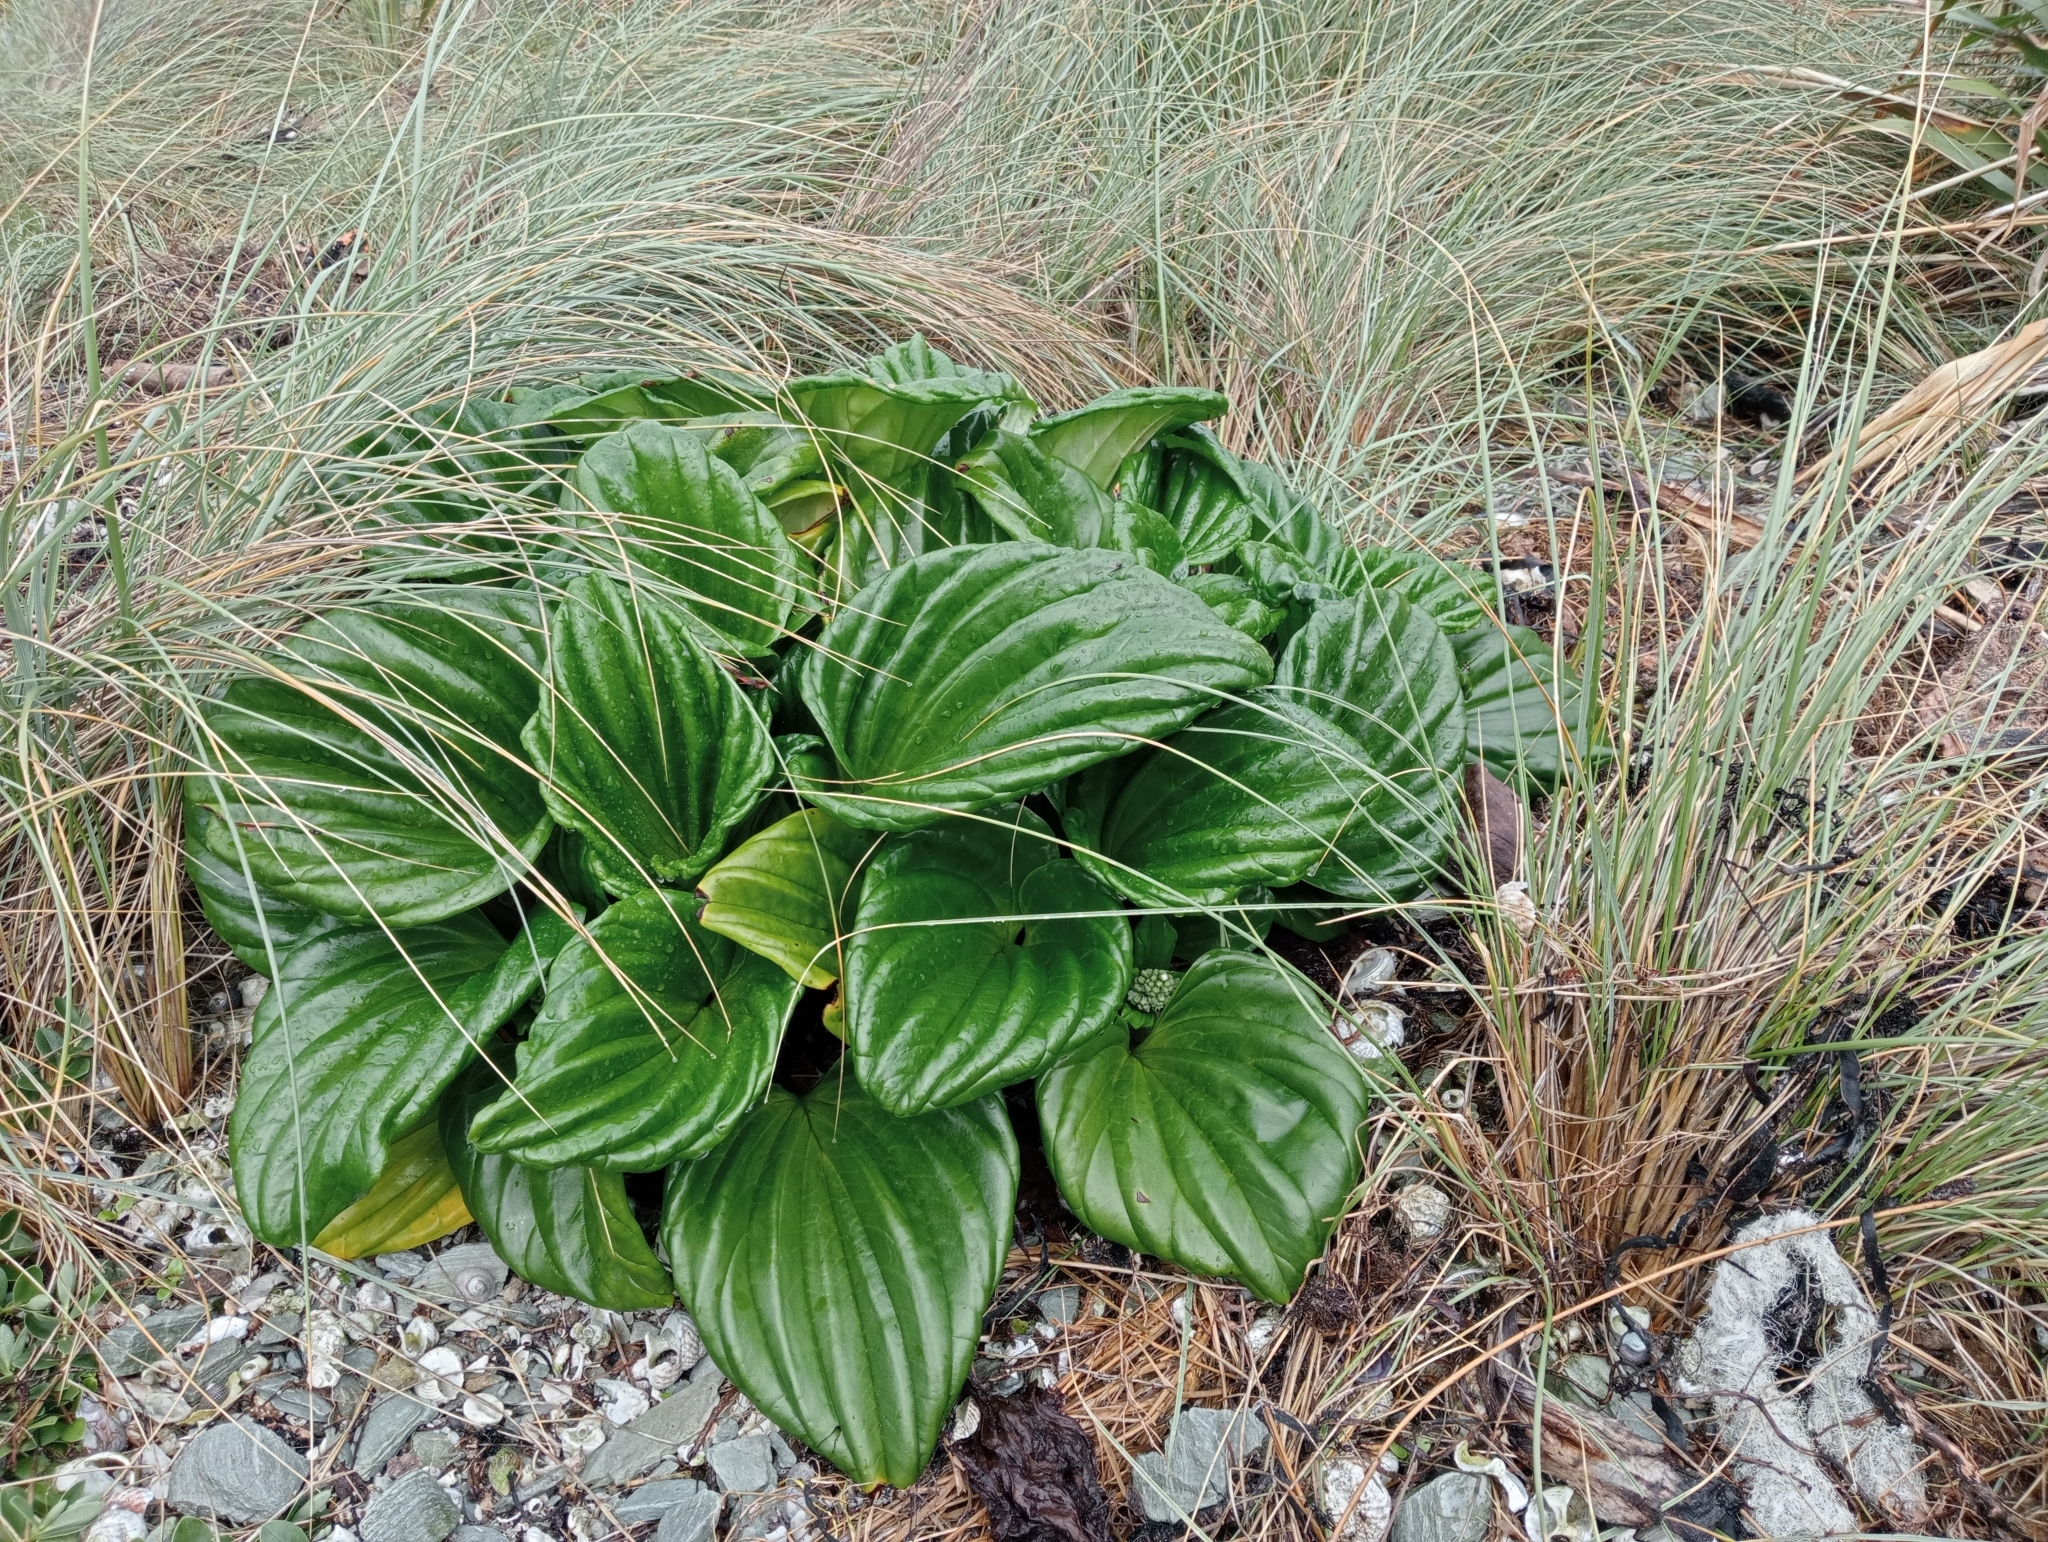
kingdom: Plantae
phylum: Tracheophyta
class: Magnoliopsida
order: Boraginales
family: Boraginaceae
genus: Myosotidium
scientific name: Myosotidium hortensia
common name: Giant forget-me-not
